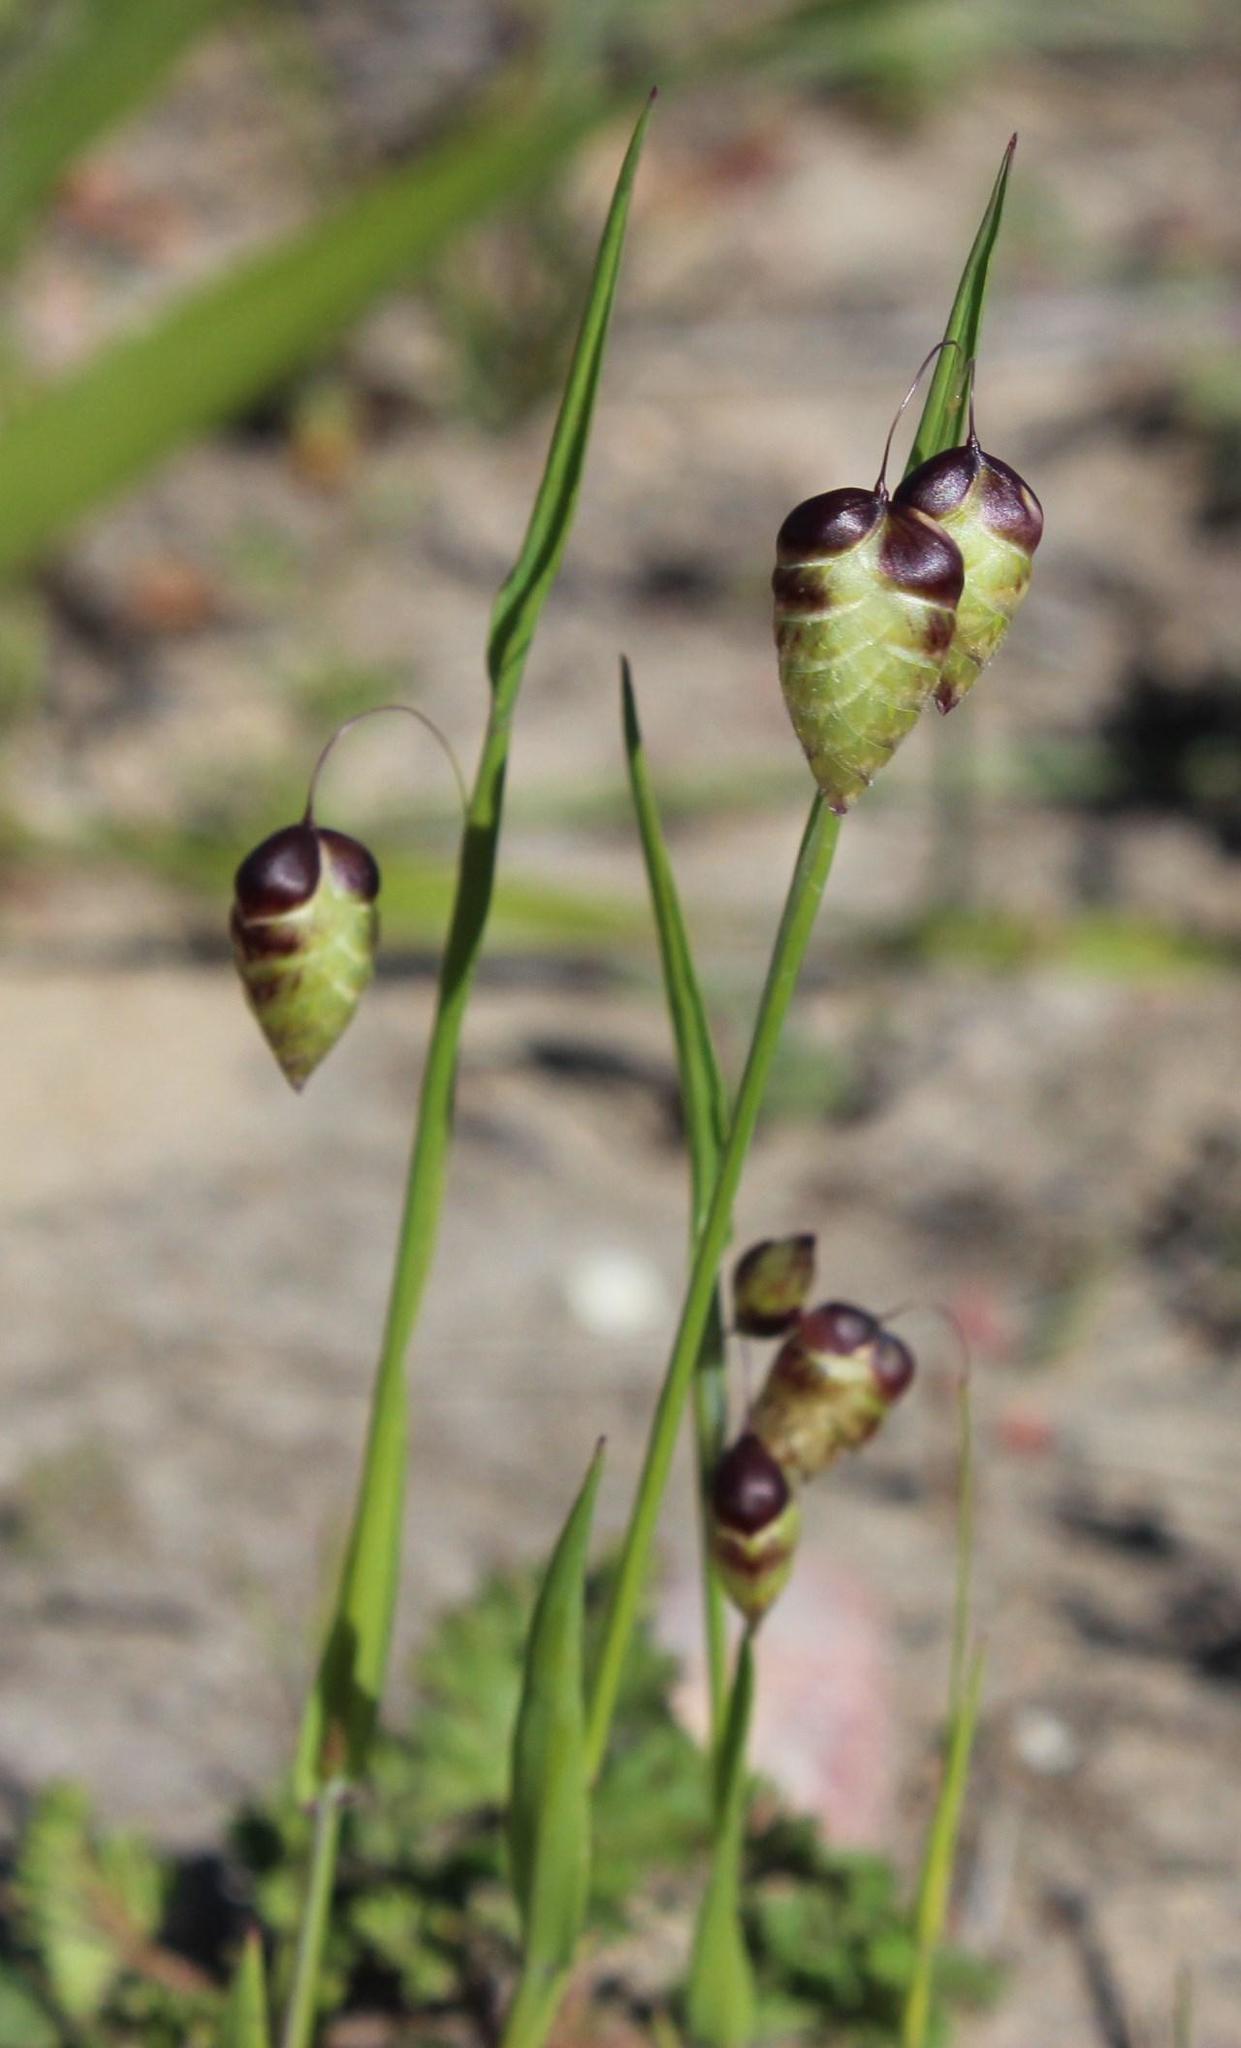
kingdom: Plantae
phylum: Tracheophyta
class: Liliopsida
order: Poales
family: Poaceae
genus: Briza
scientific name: Briza maxima
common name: Big quakinggrass
